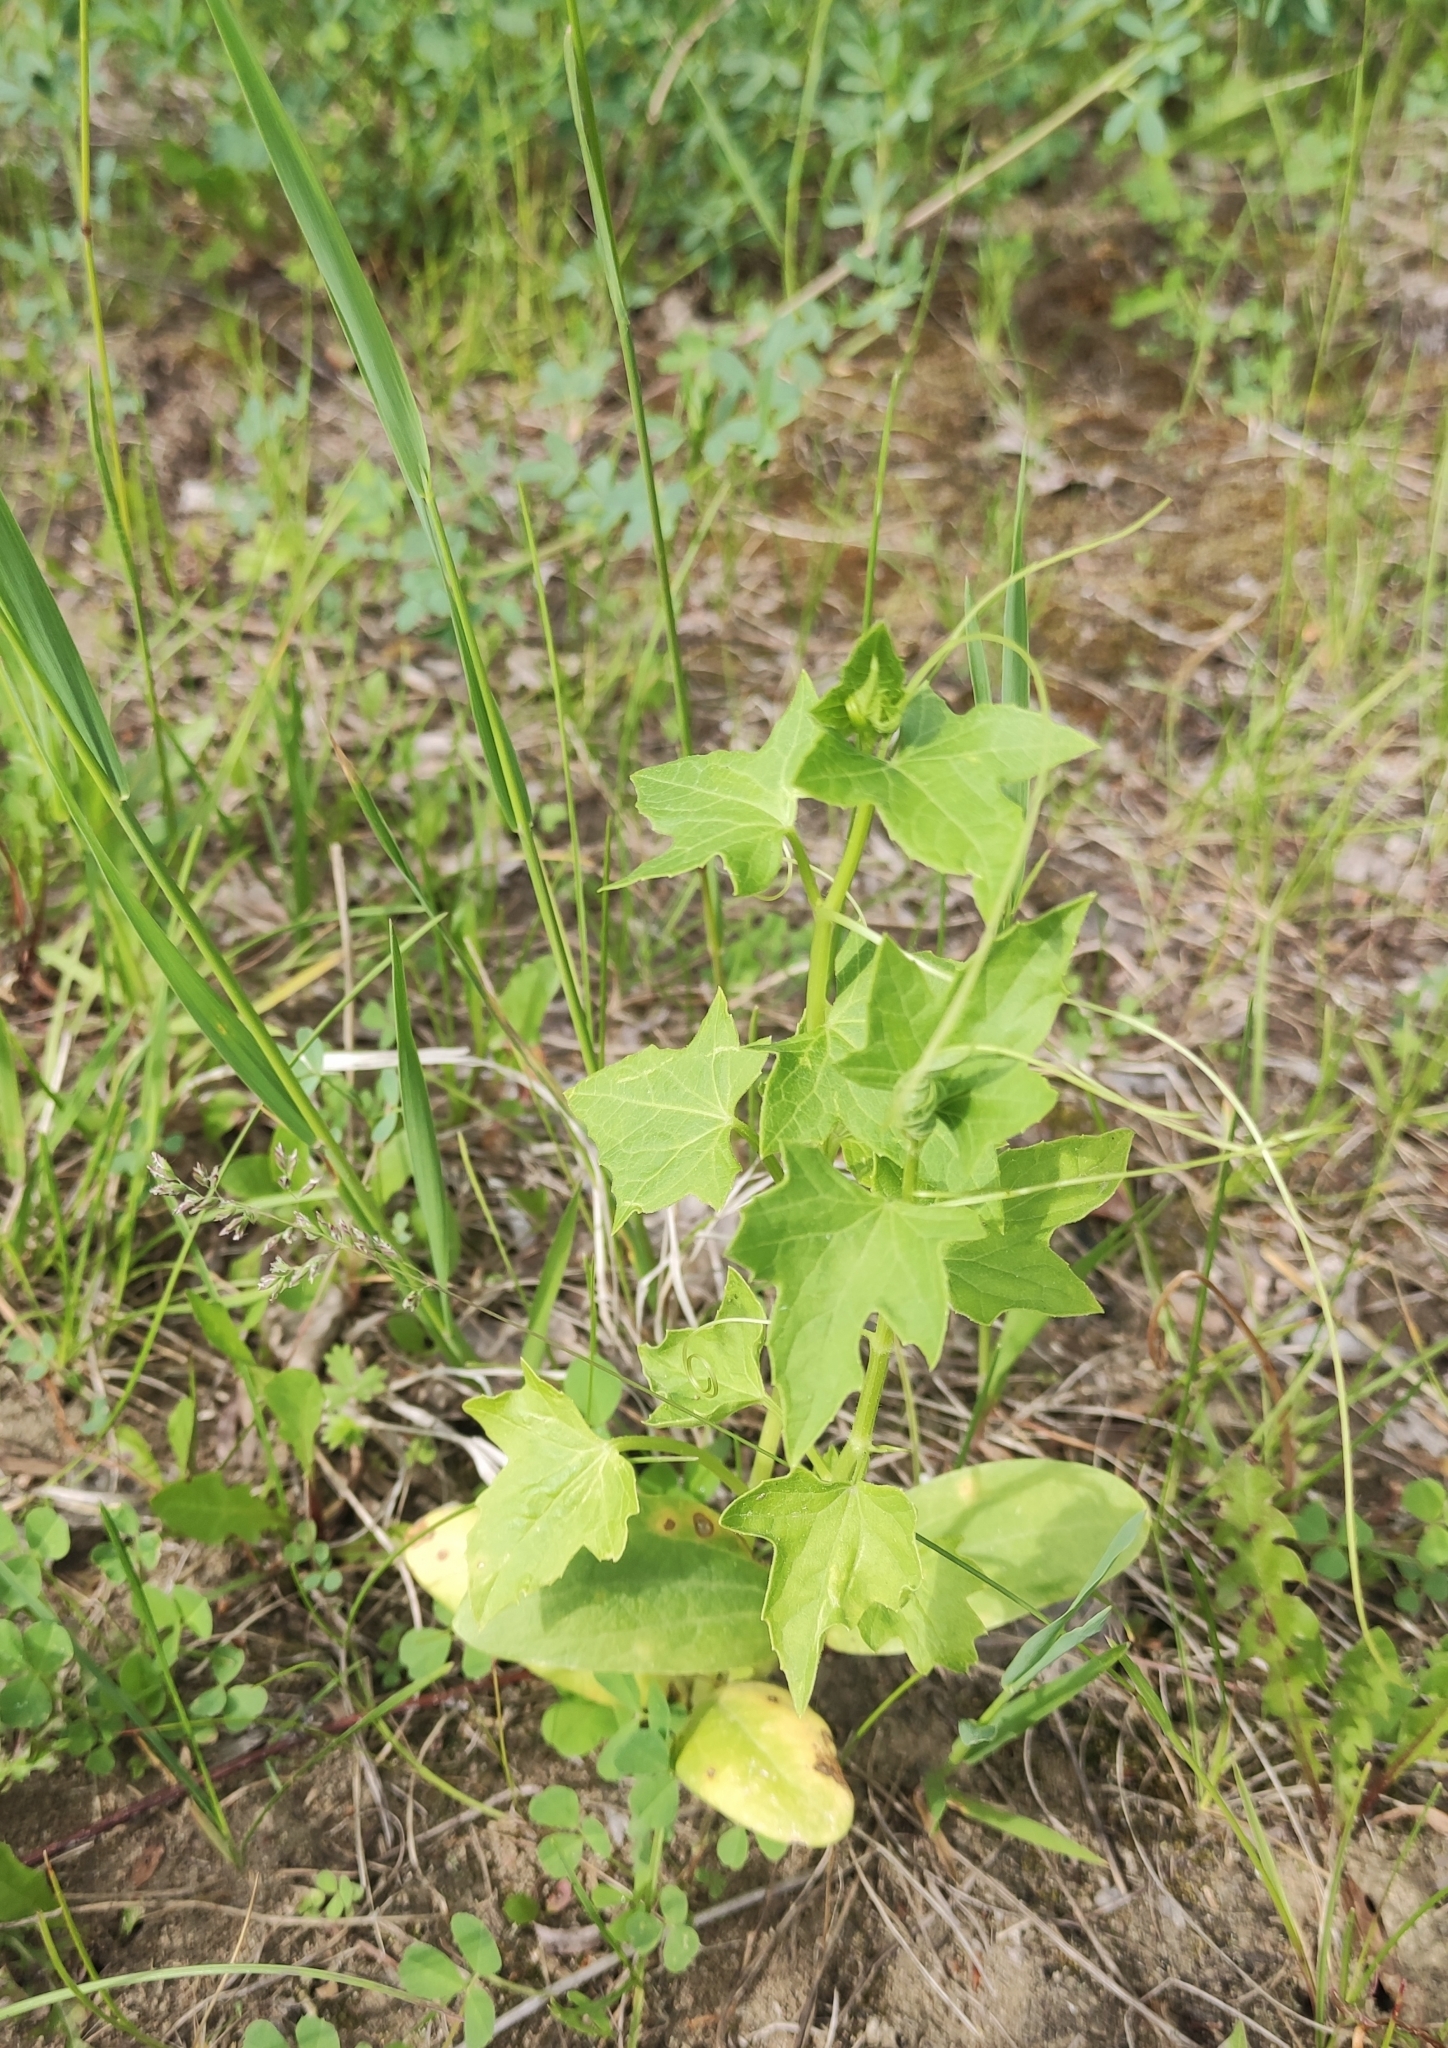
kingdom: Plantae
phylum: Tracheophyta
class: Magnoliopsida
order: Cucurbitales
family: Cucurbitaceae
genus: Echinocystis
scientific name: Echinocystis lobata
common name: Wild cucumber
